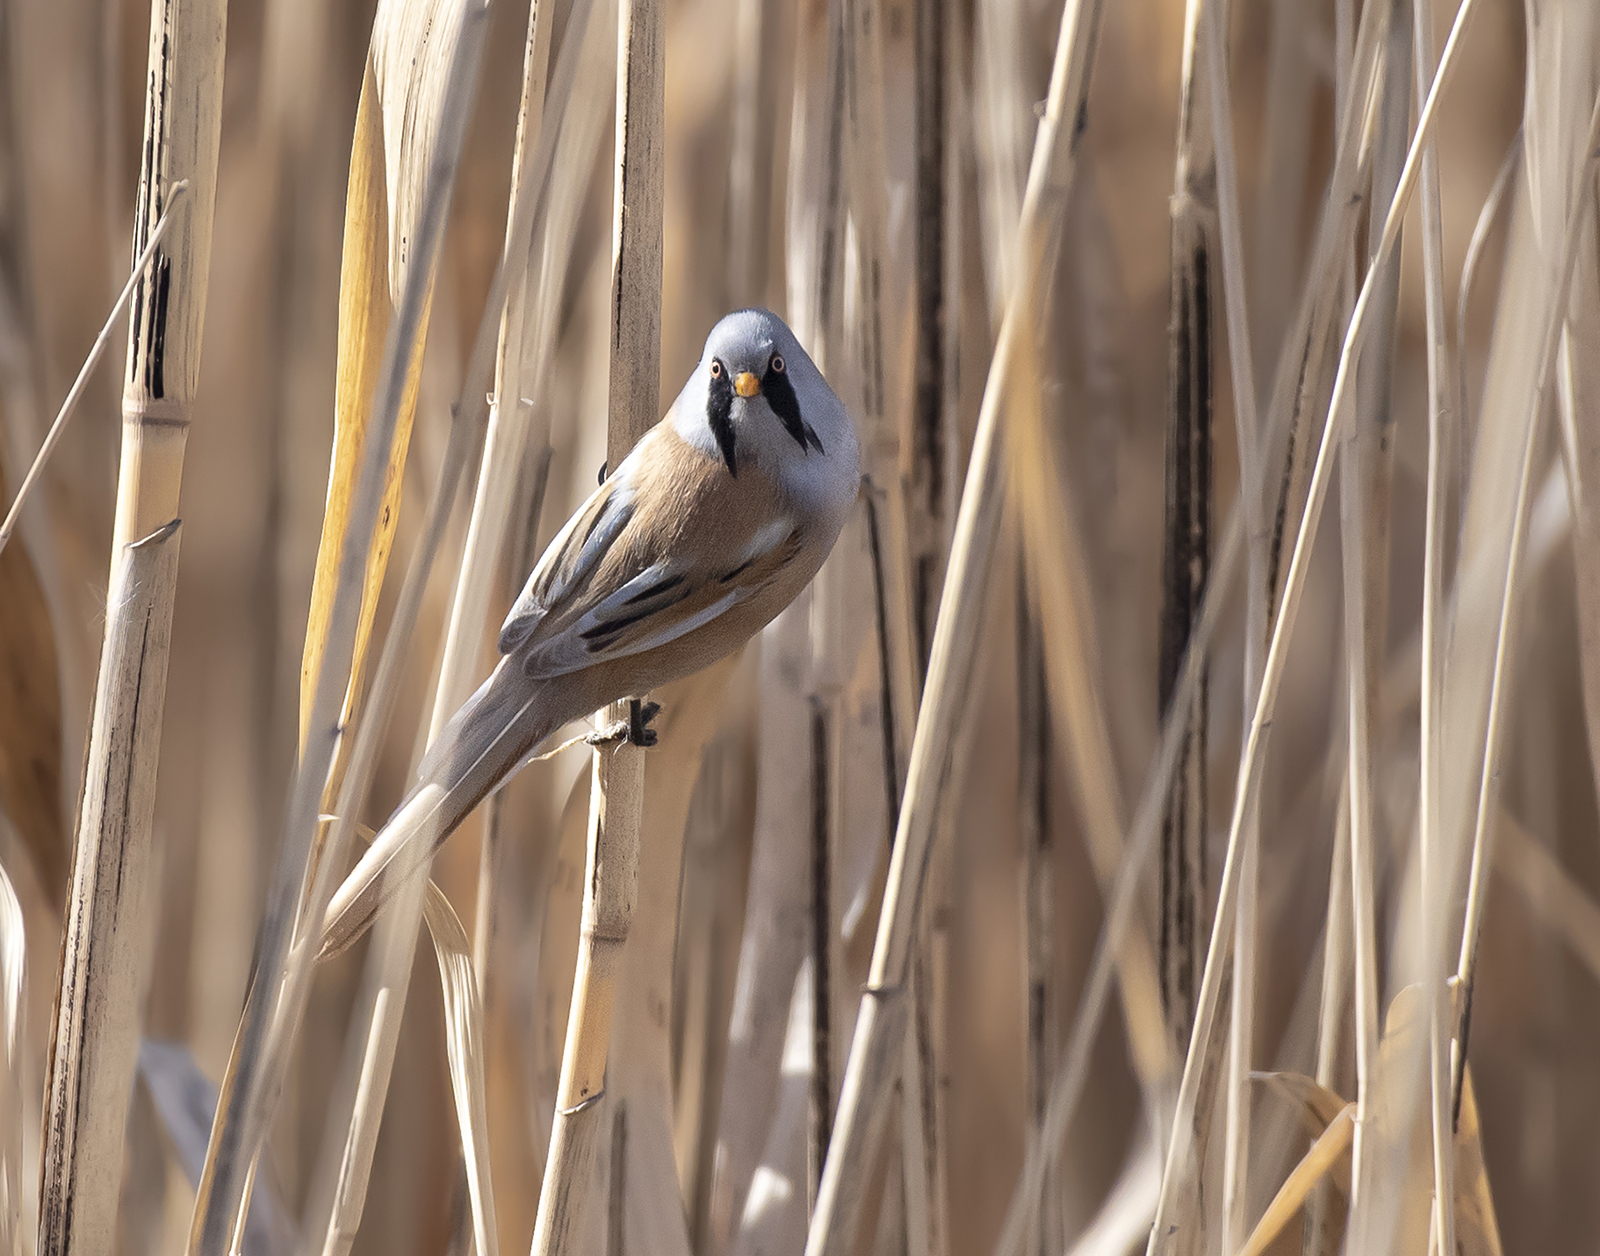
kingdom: Animalia
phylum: Chordata
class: Aves
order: Passeriformes
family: Panuridae
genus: Panurus
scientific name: Panurus biarmicus
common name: Bearded reedling
